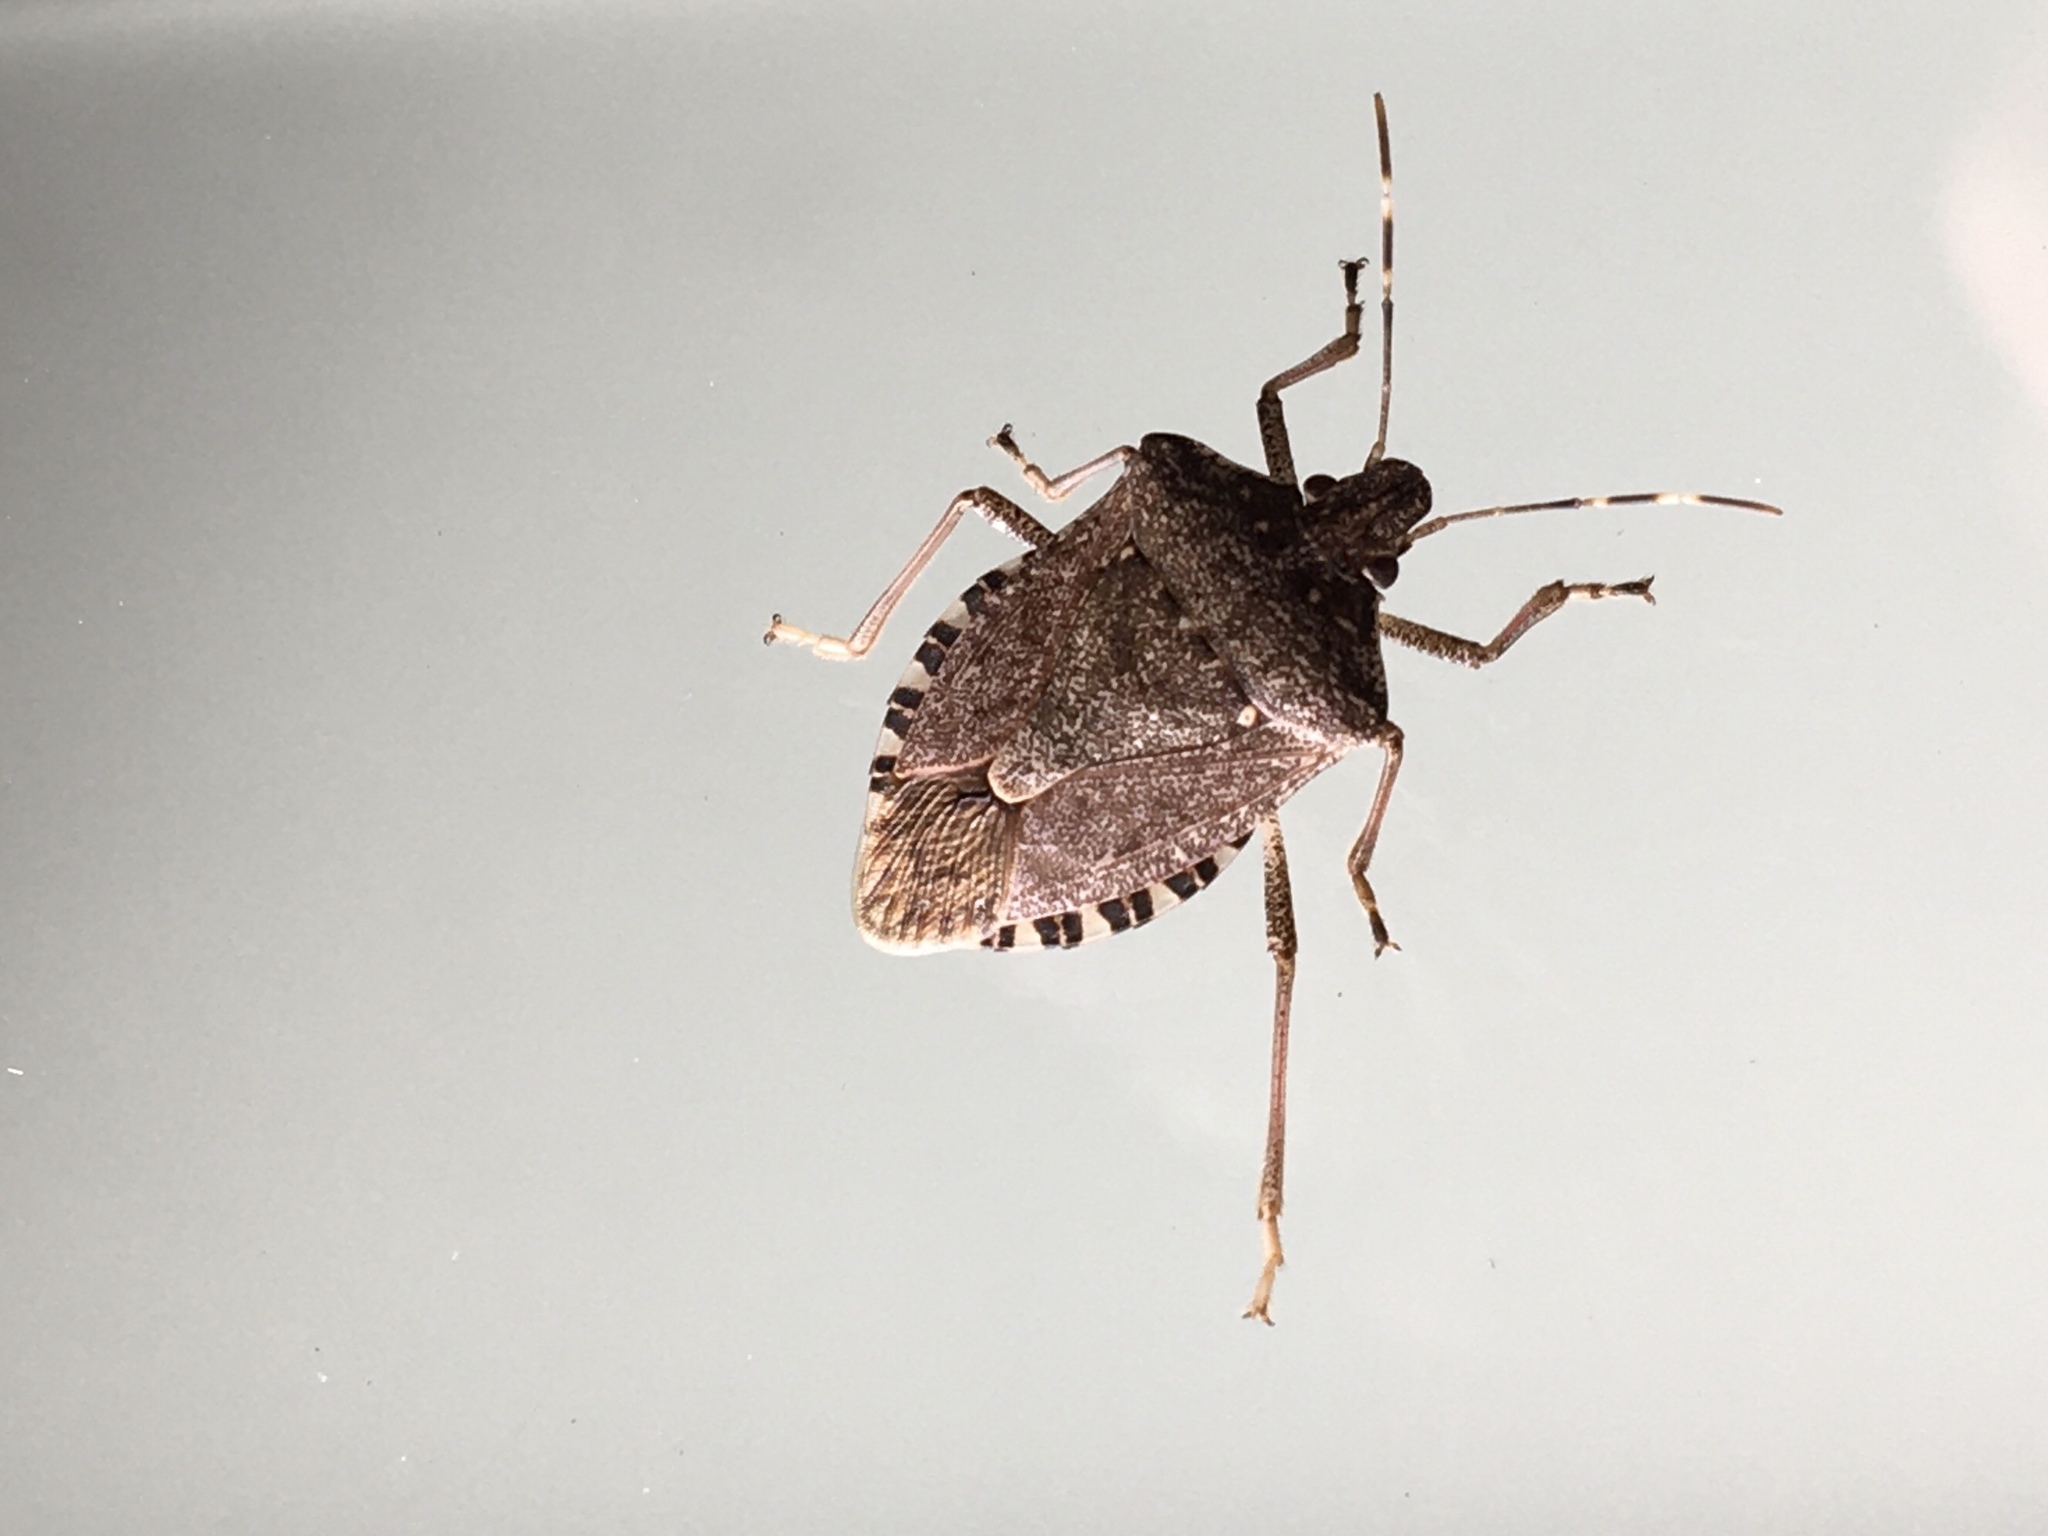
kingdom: Animalia
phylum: Arthropoda
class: Insecta
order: Hemiptera
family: Pentatomidae
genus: Halyomorpha
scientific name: Halyomorpha halys
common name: Brown marmorated stink bug
